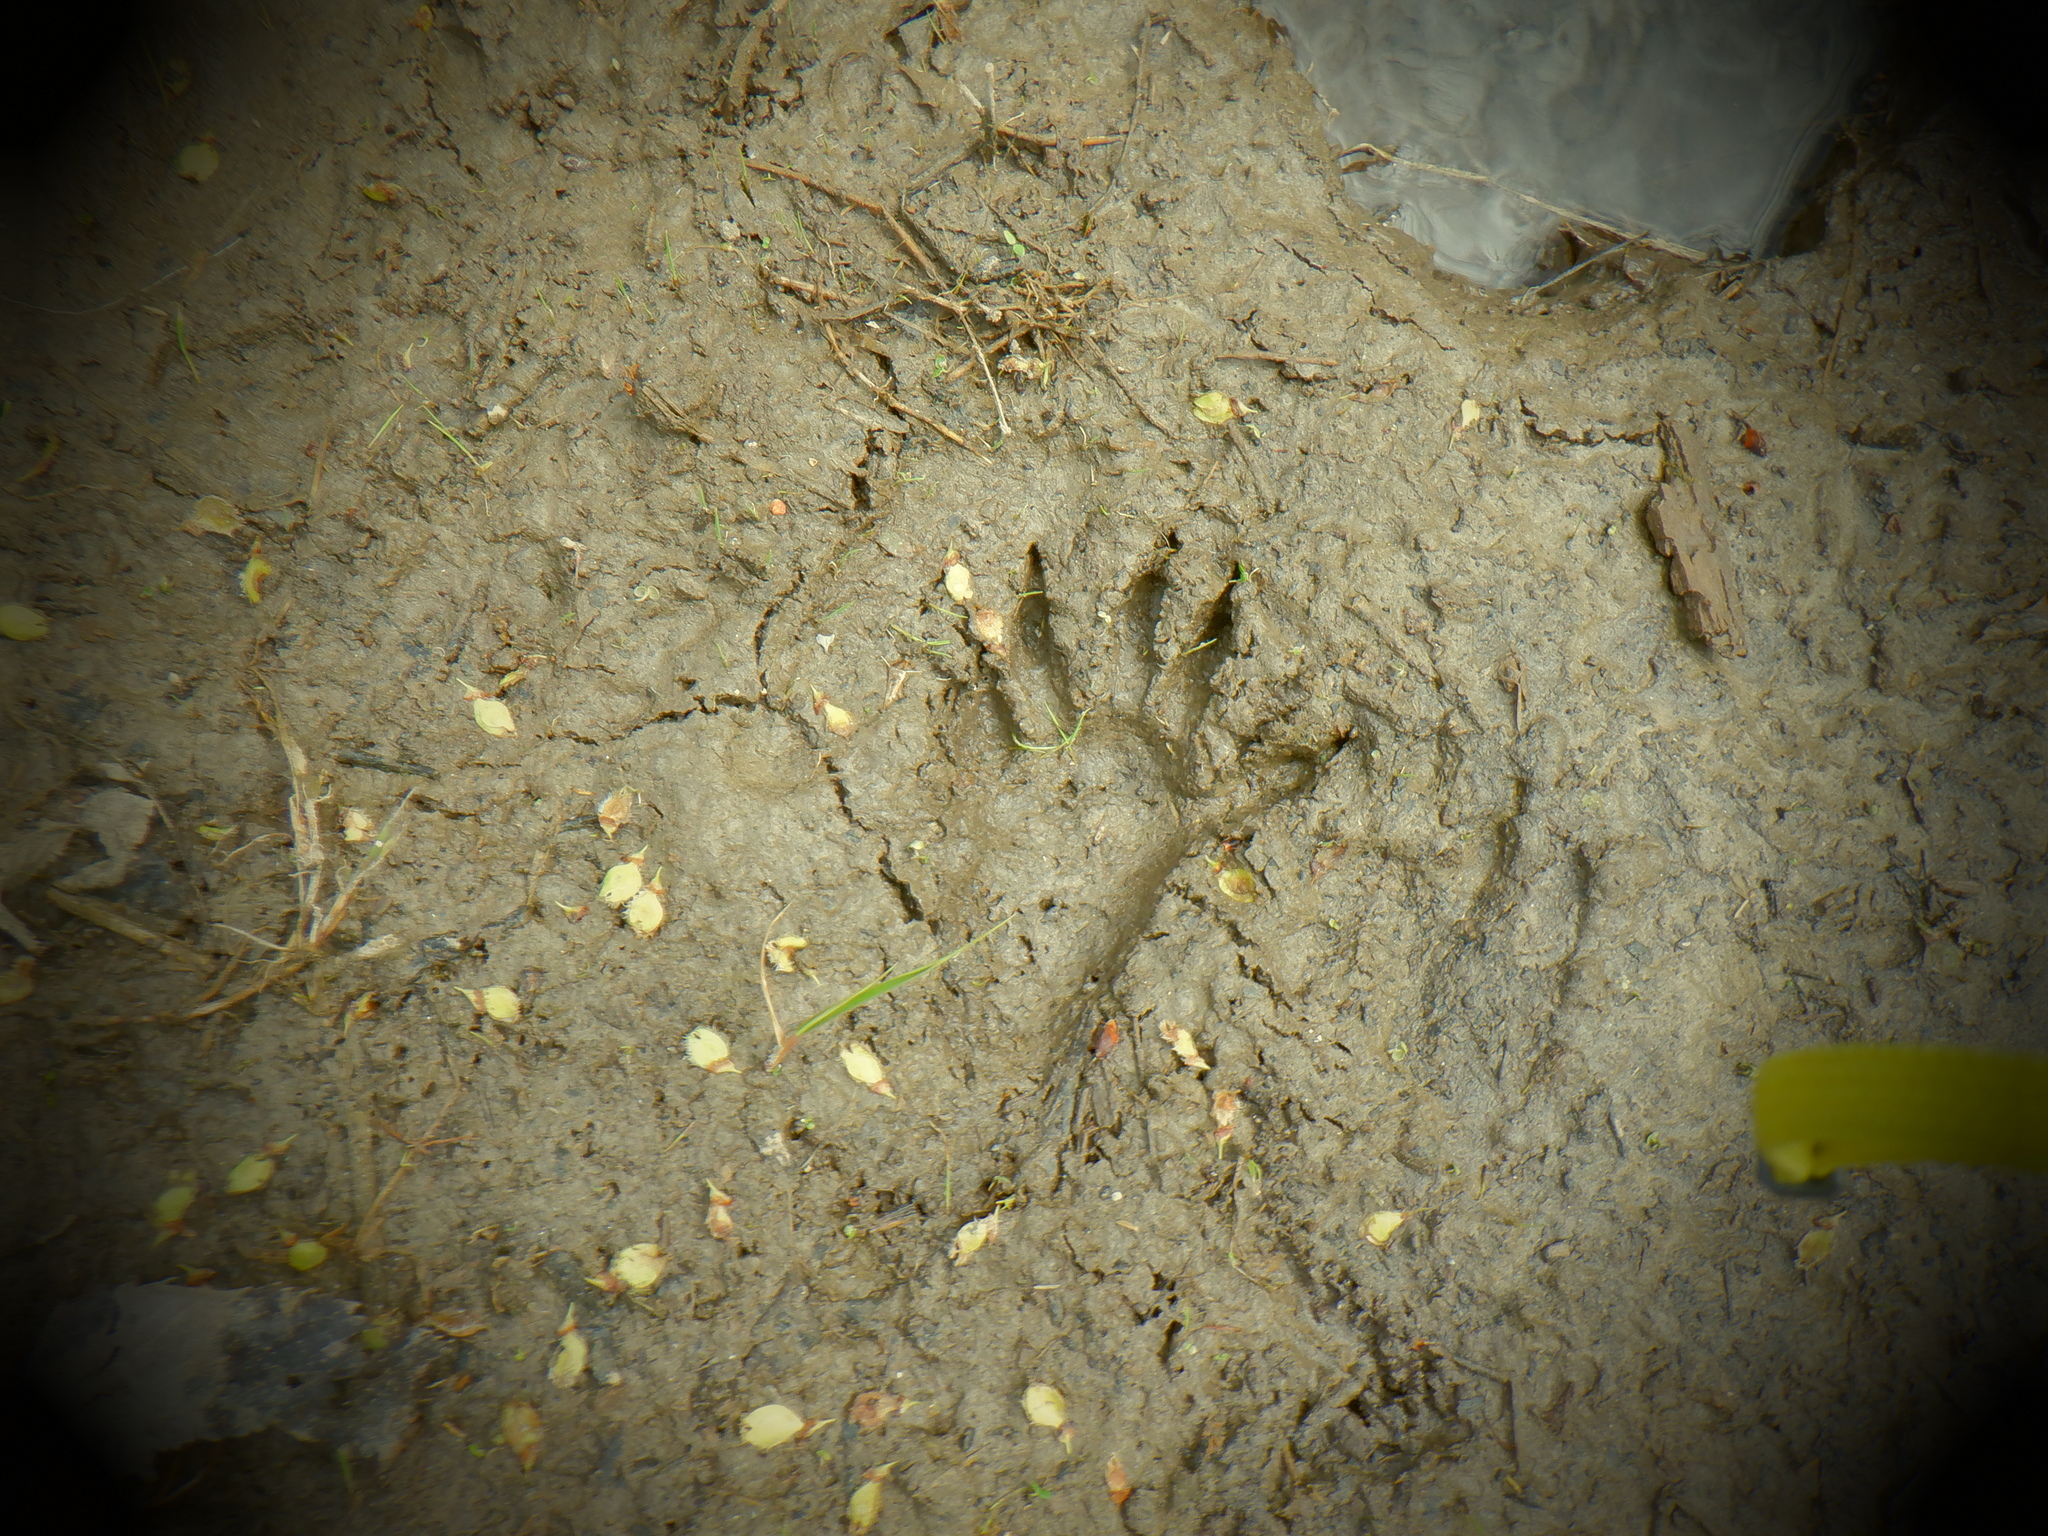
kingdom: Animalia
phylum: Chordata
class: Mammalia
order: Carnivora
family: Procyonidae
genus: Procyon
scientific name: Procyon lotor
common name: Raccoon
